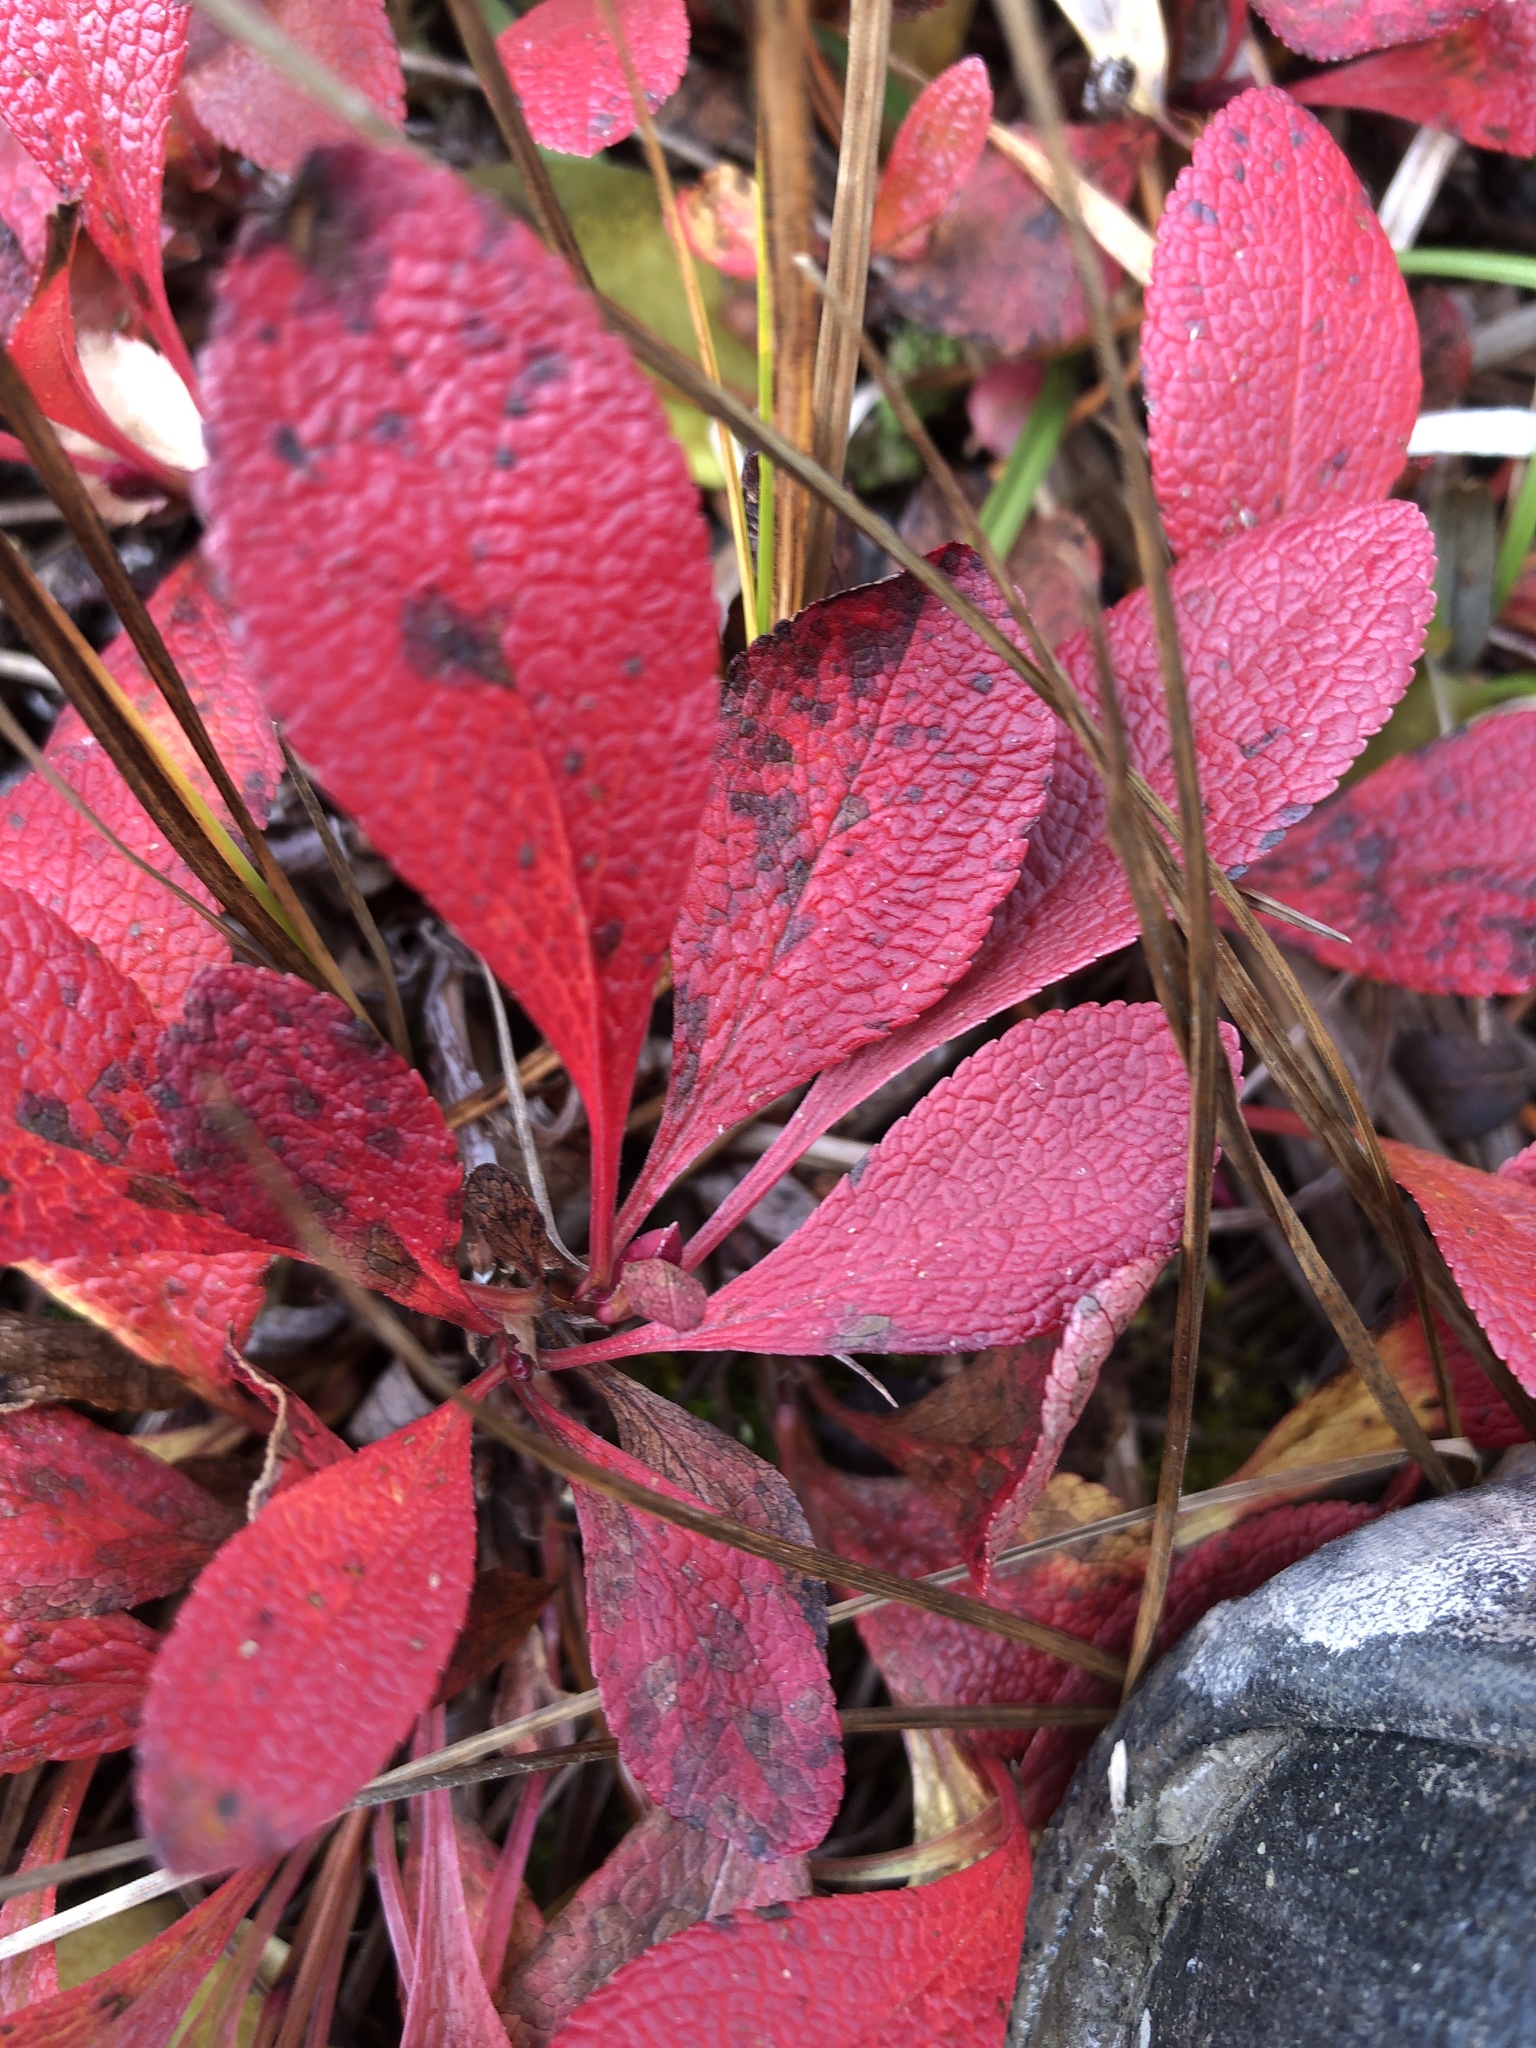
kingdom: Plantae
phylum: Tracheophyta
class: Magnoliopsida
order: Ericales
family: Ericaceae
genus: Arctostaphylos
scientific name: Arctostaphylos rubra
